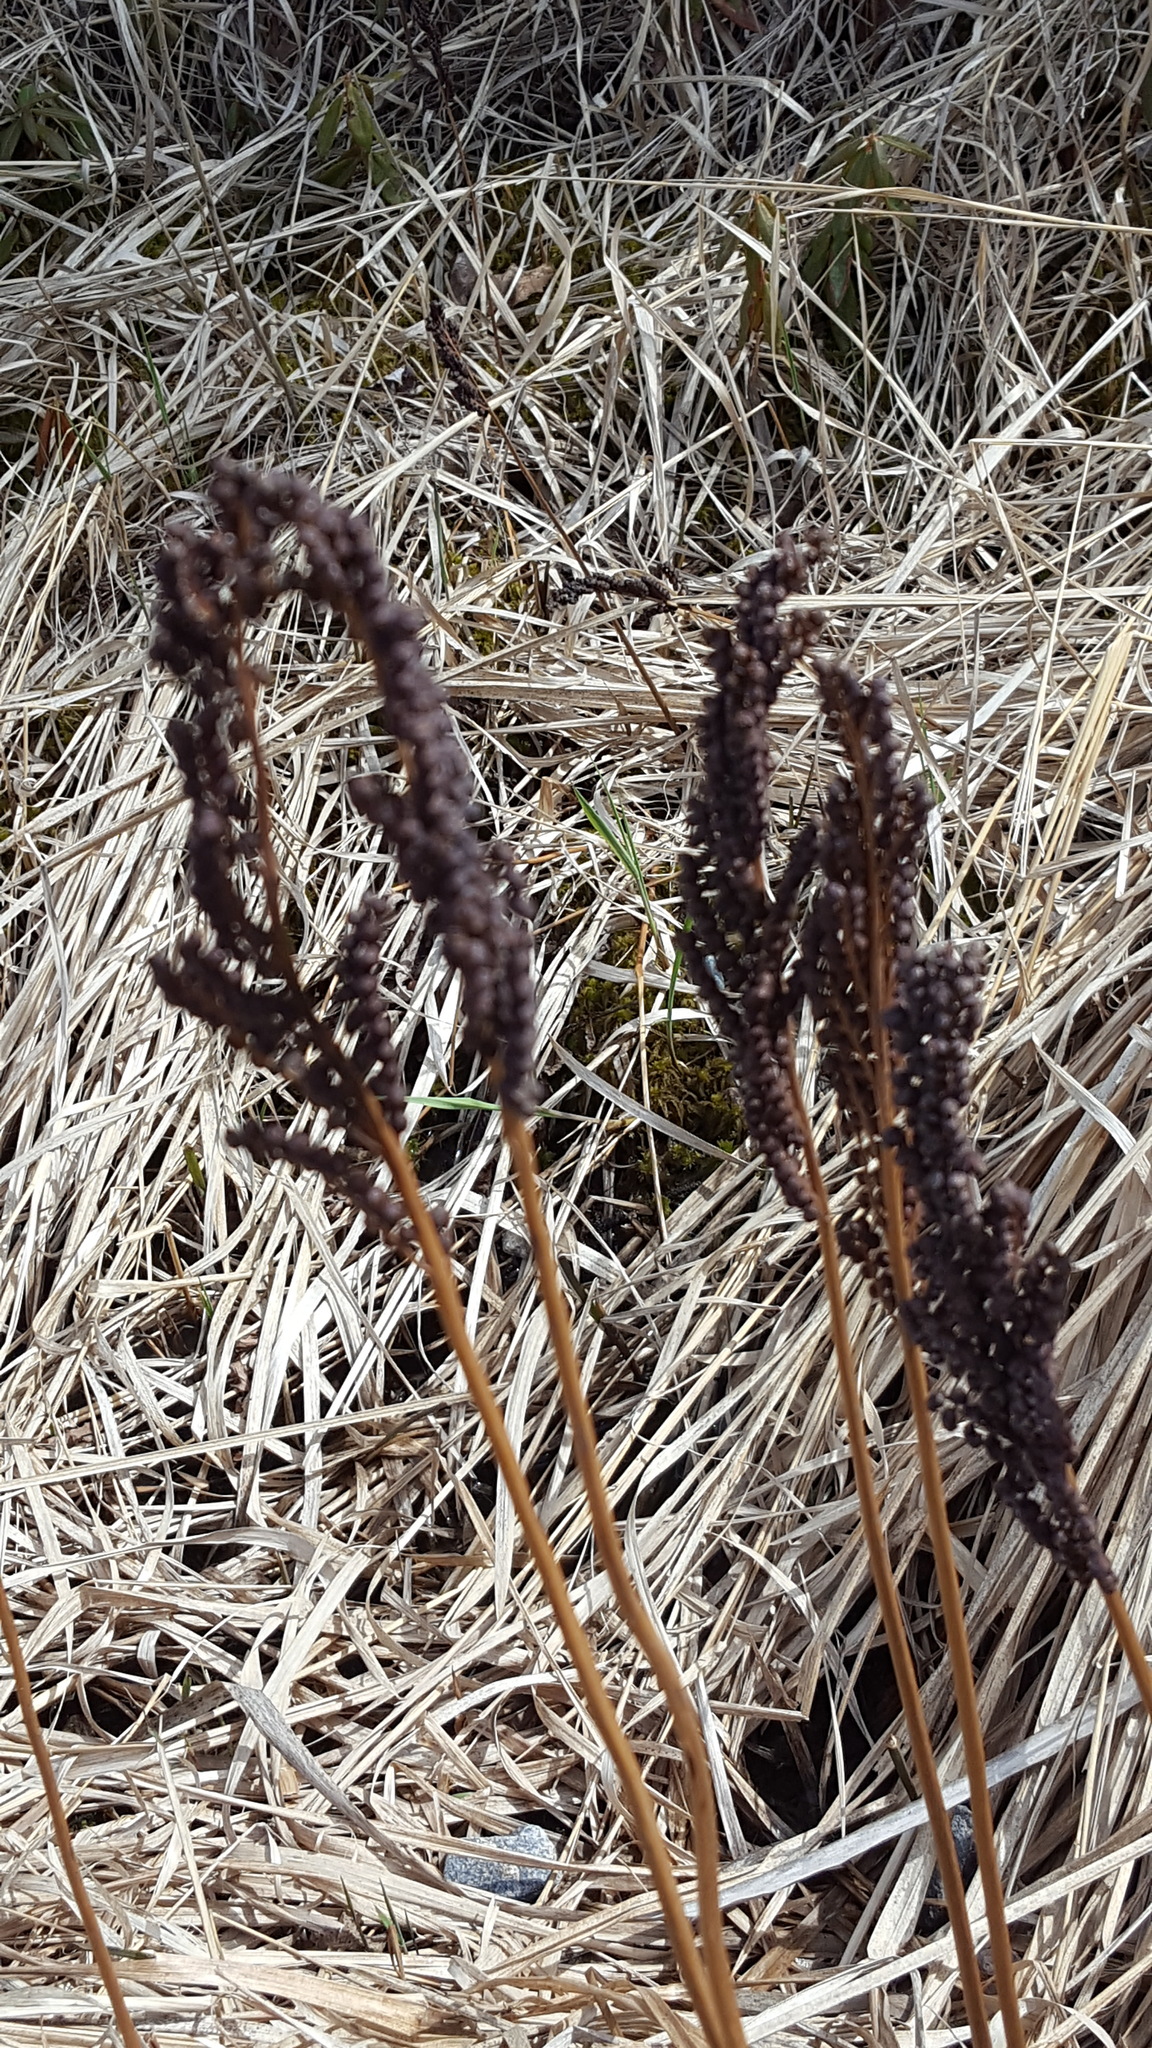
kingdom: Plantae
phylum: Tracheophyta
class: Polypodiopsida
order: Polypodiales
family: Onocleaceae
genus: Onoclea
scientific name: Onoclea sensibilis
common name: Sensitive fern
